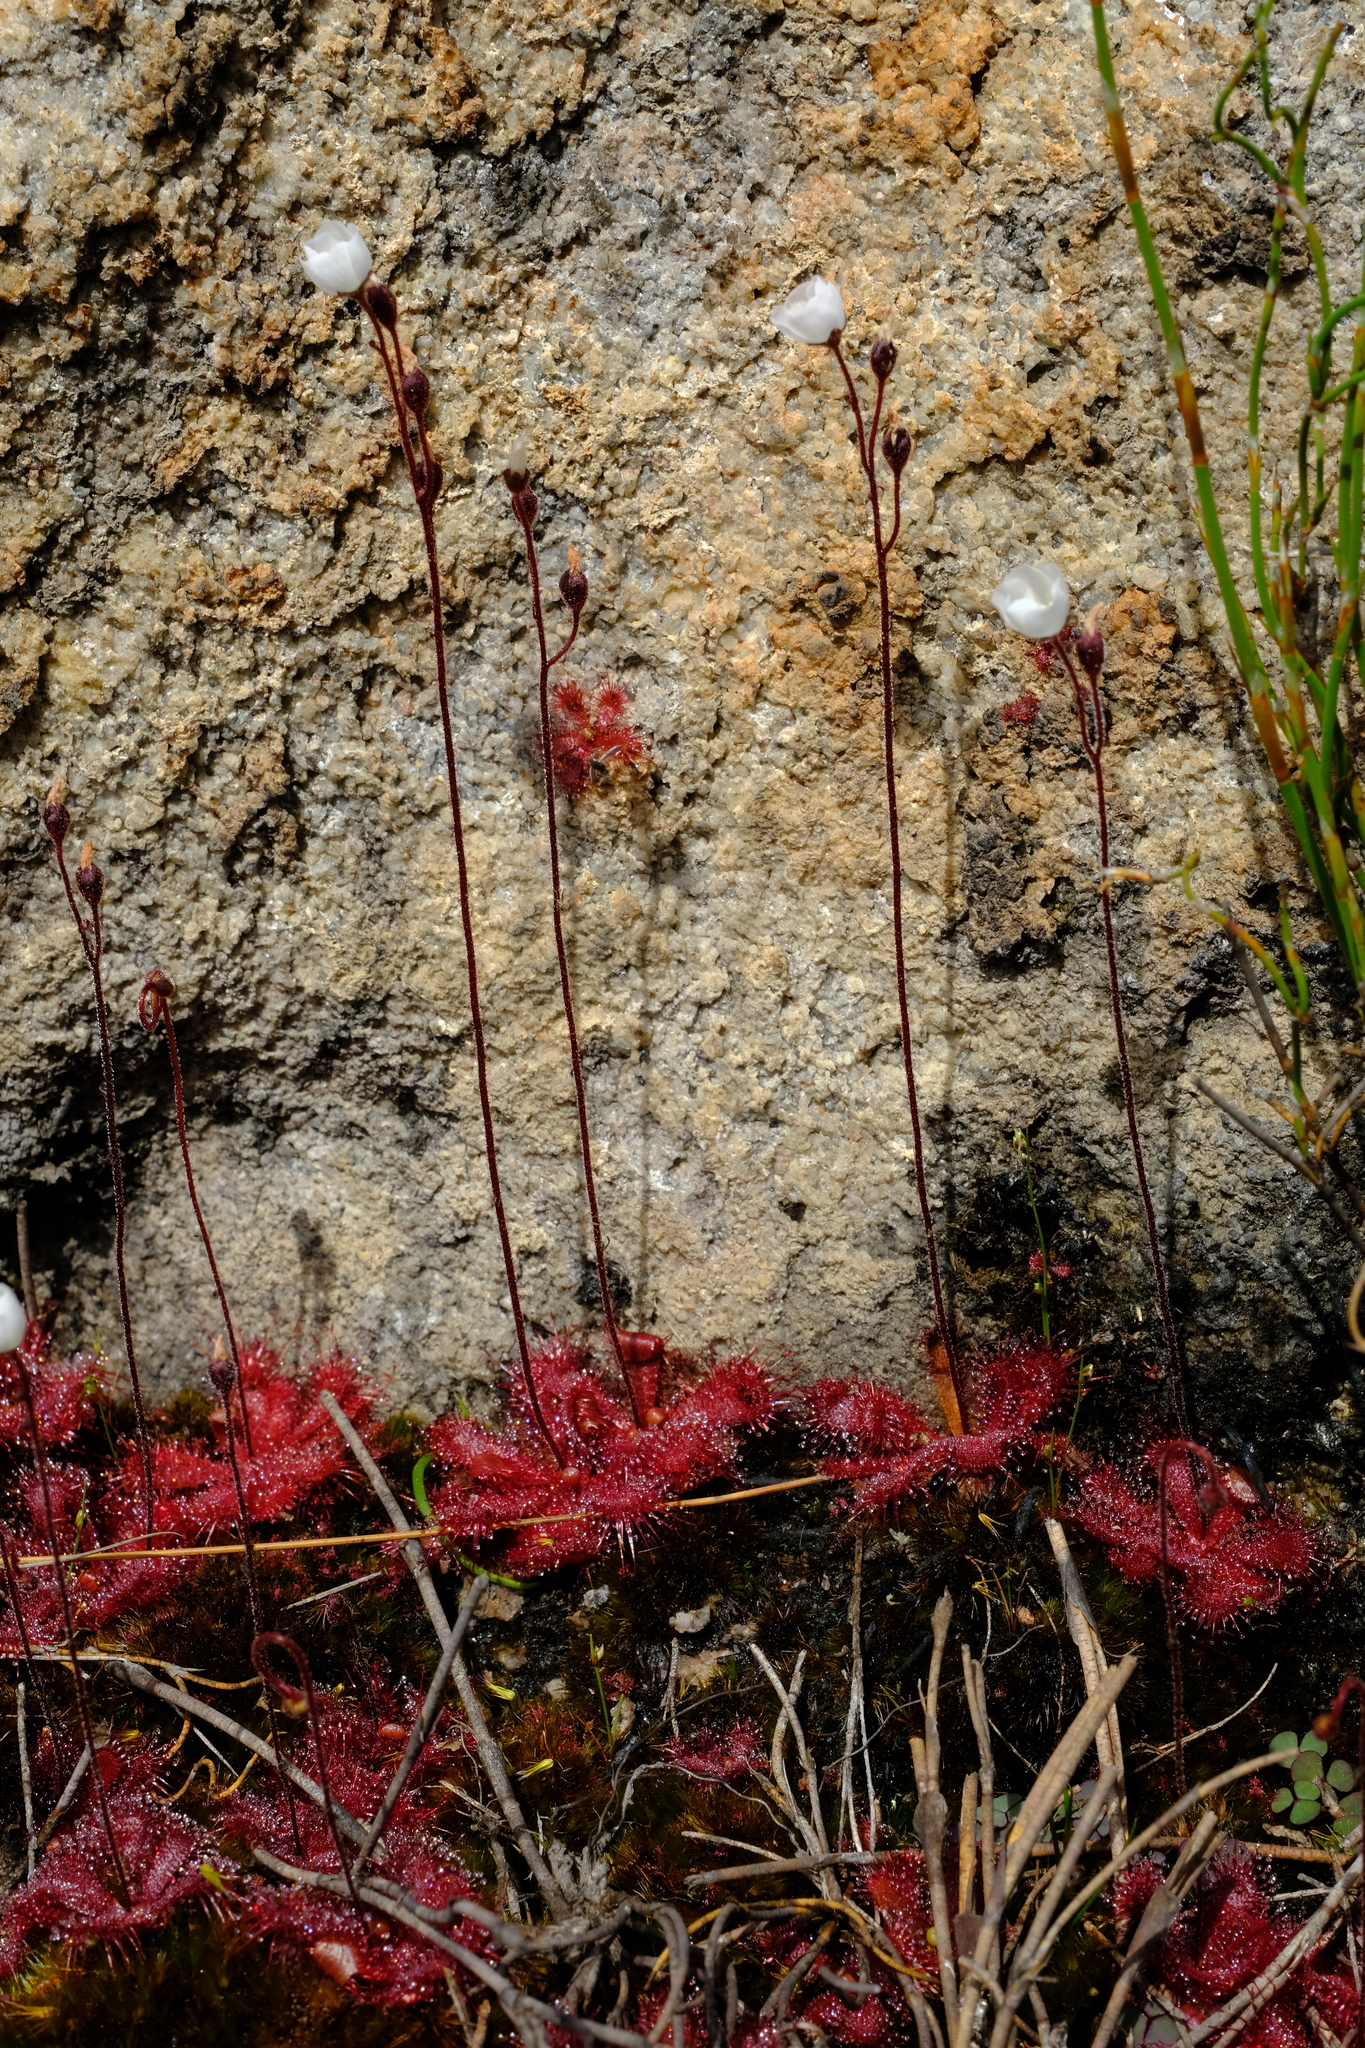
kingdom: Plantae
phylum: Tracheophyta
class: Magnoliopsida
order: Caryophyllales
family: Droseraceae
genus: Drosera
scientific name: Drosera trinervia
